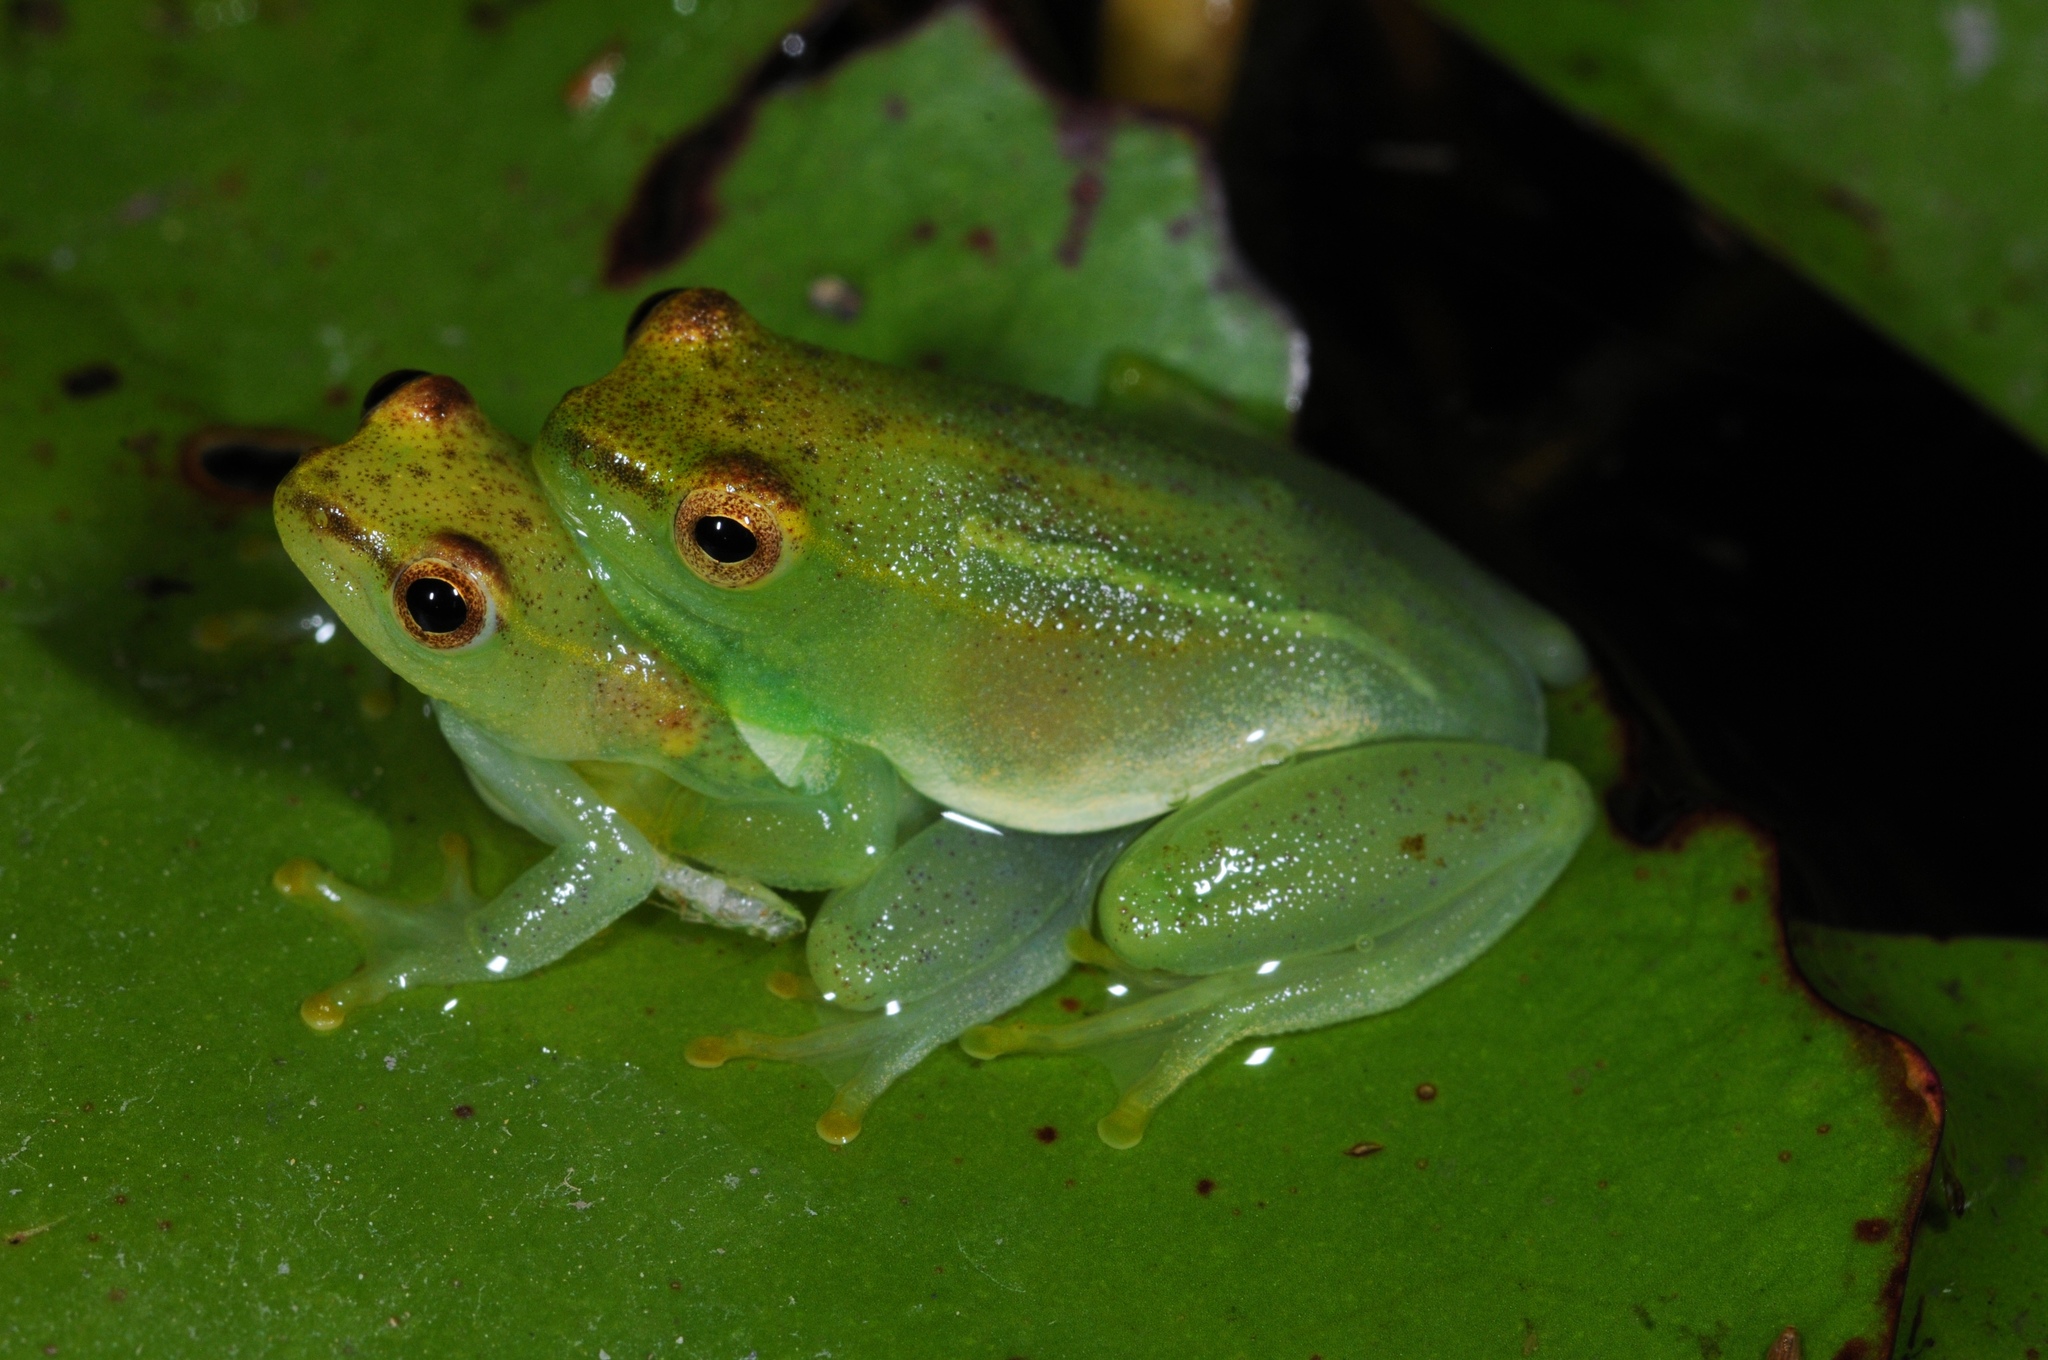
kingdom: Animalia
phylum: Chordata
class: Amphibia
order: Anura
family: Hyperoliidae
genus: Hyperolius
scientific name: Hyperolius pusillus
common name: Water lily reed frog
